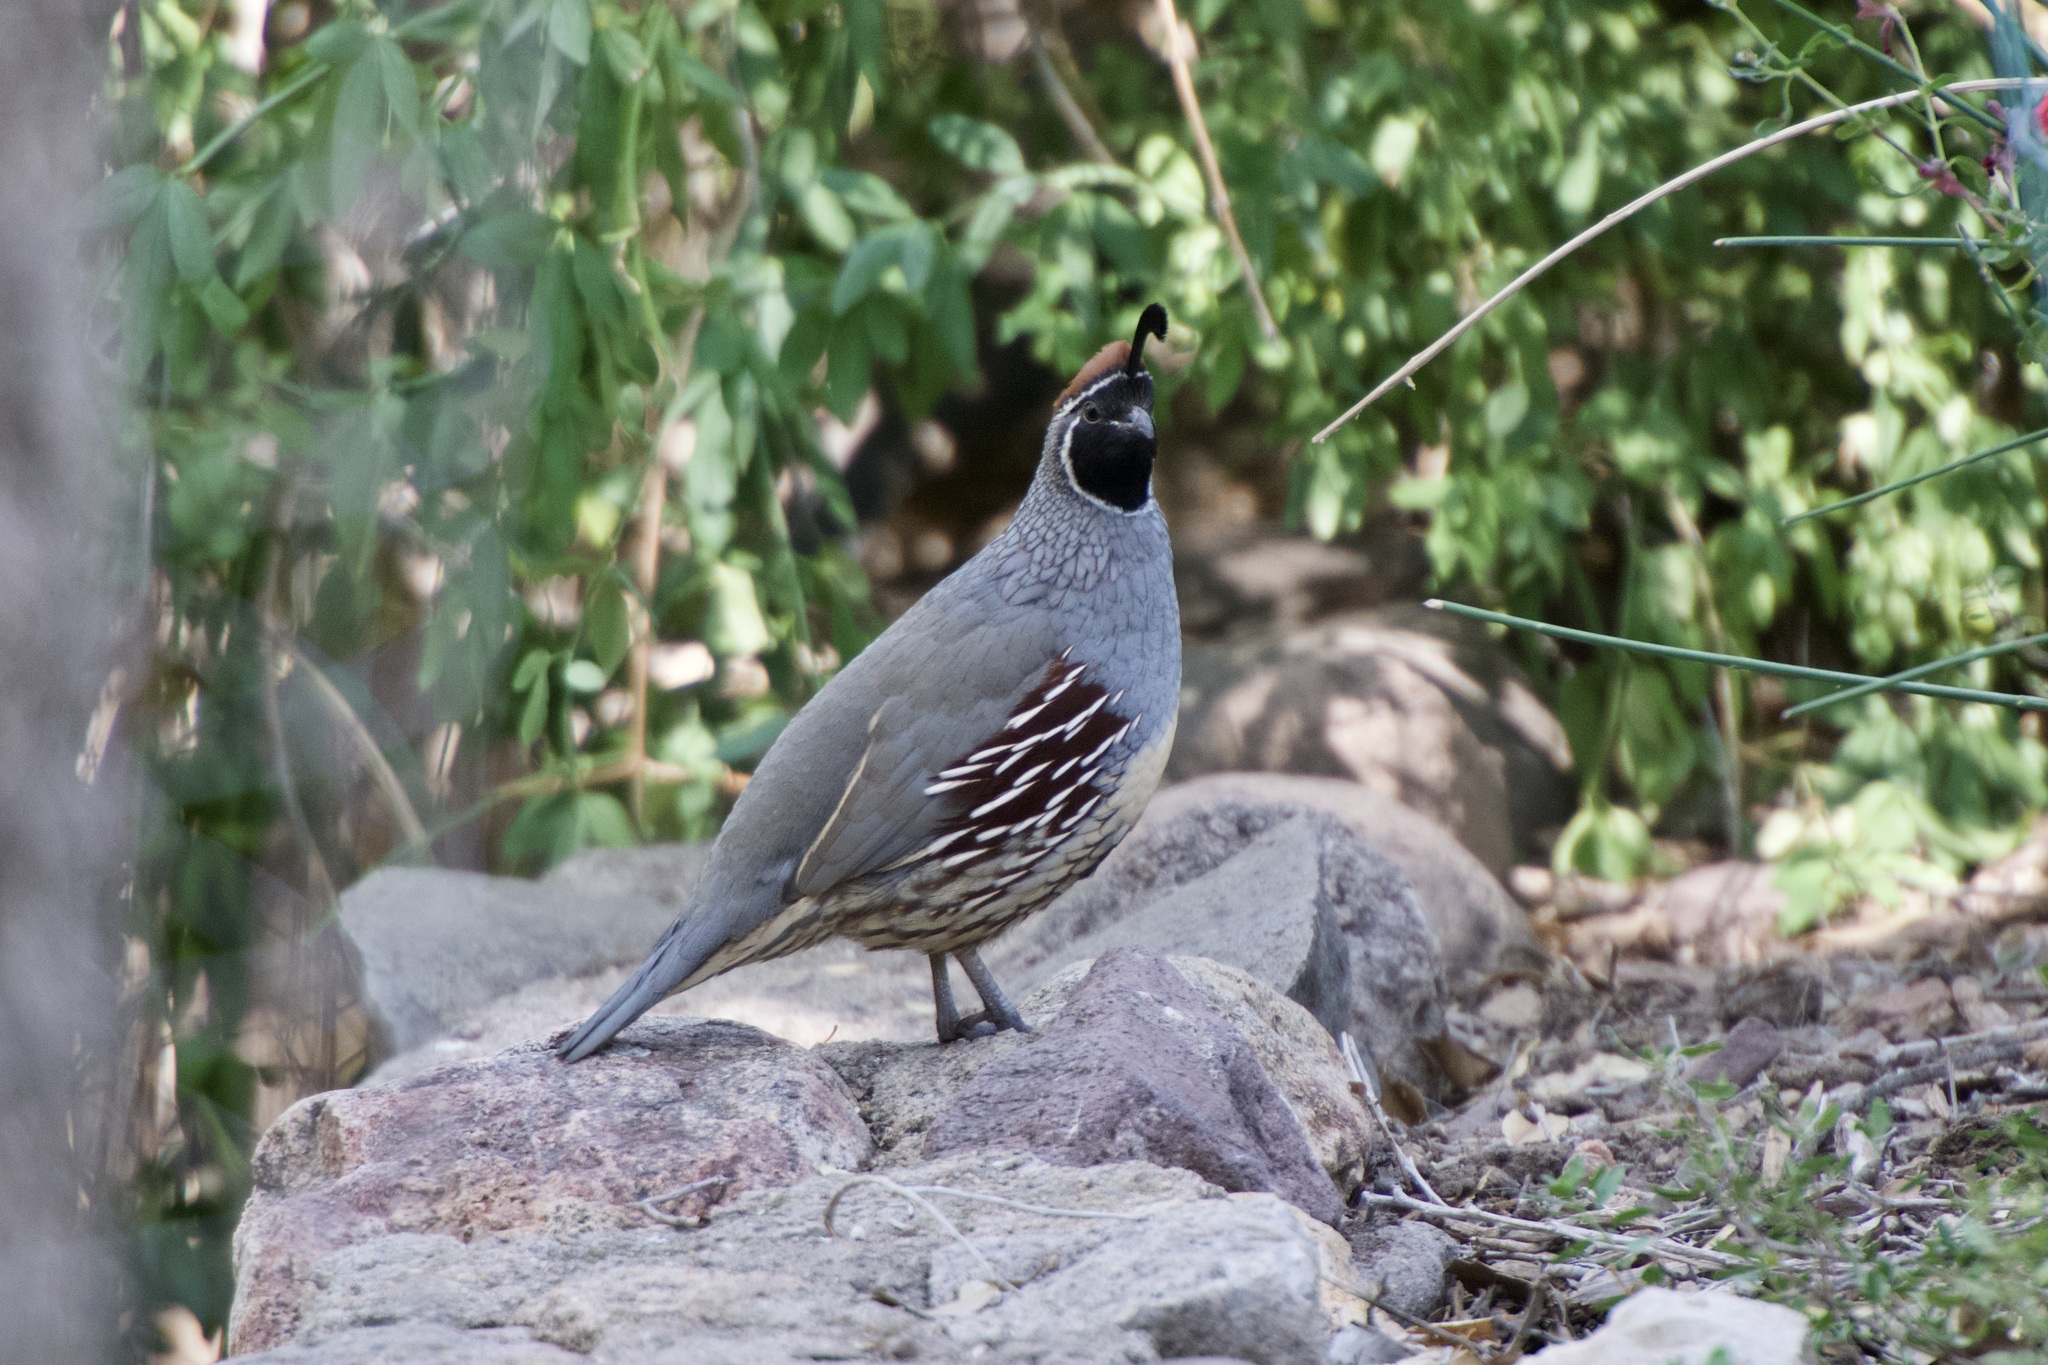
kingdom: Animalia
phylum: Chordata
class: Aves
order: Galliformes
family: Odontophoridae
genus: Callipepla
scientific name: Callipepla gambelii
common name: Gambel's quail
